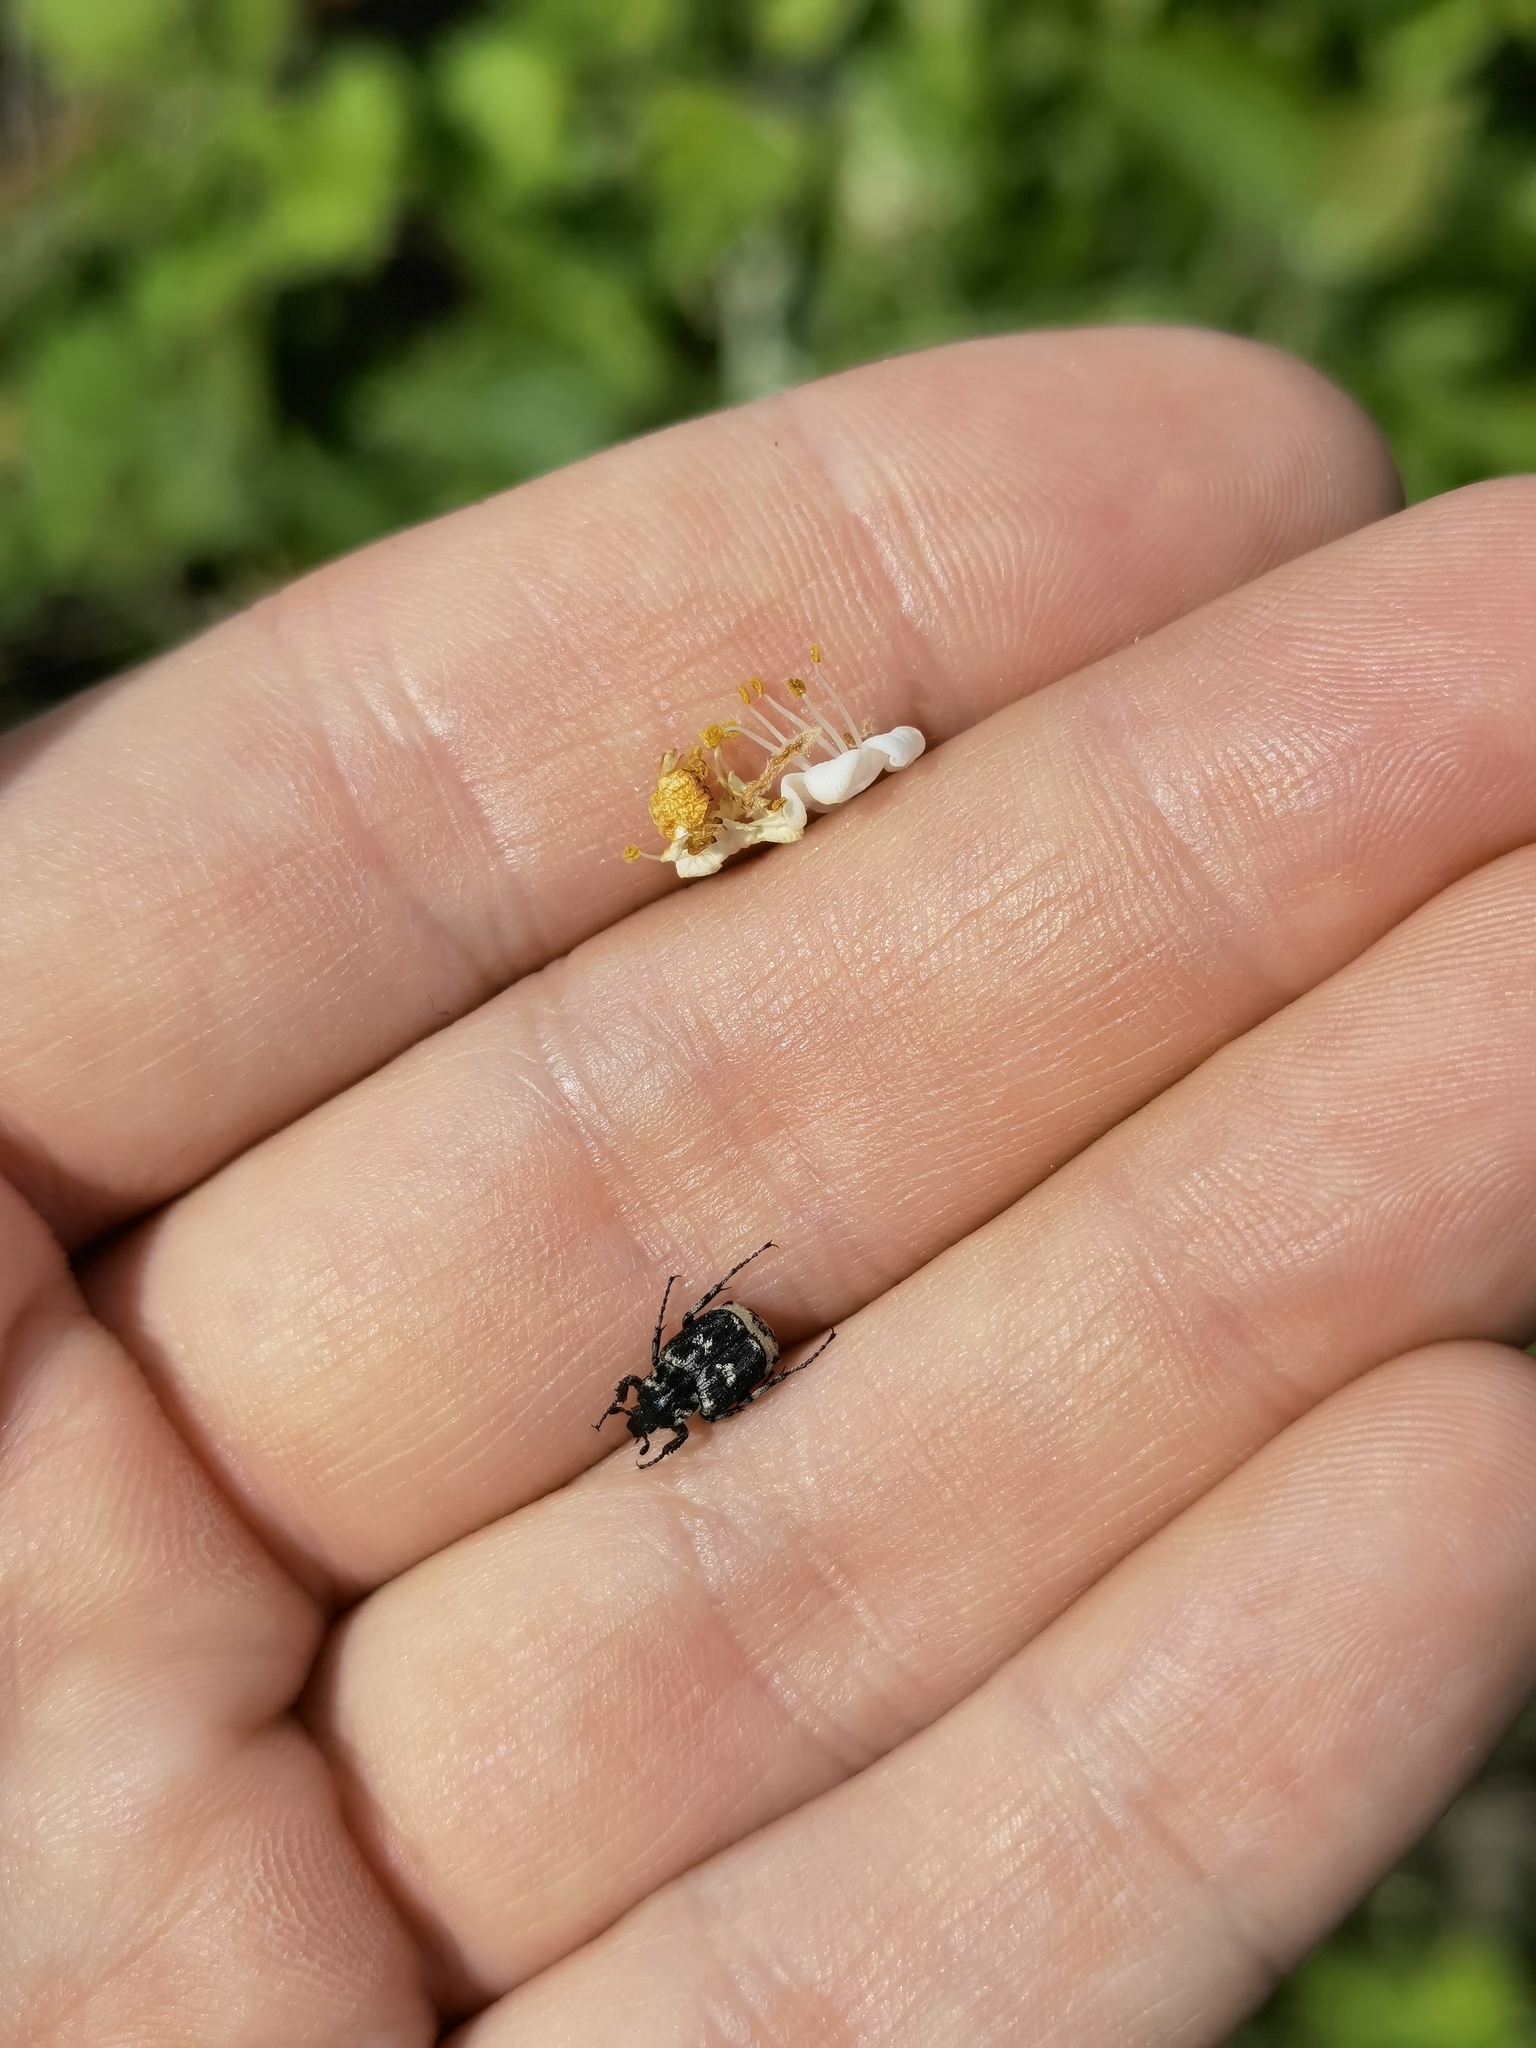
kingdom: Animalia
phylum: Arthropoda
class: Insecta
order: Coleoptera
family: Scarabaeidae
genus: Valgus
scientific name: Valgus hemipterus
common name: Bug flower chafer
